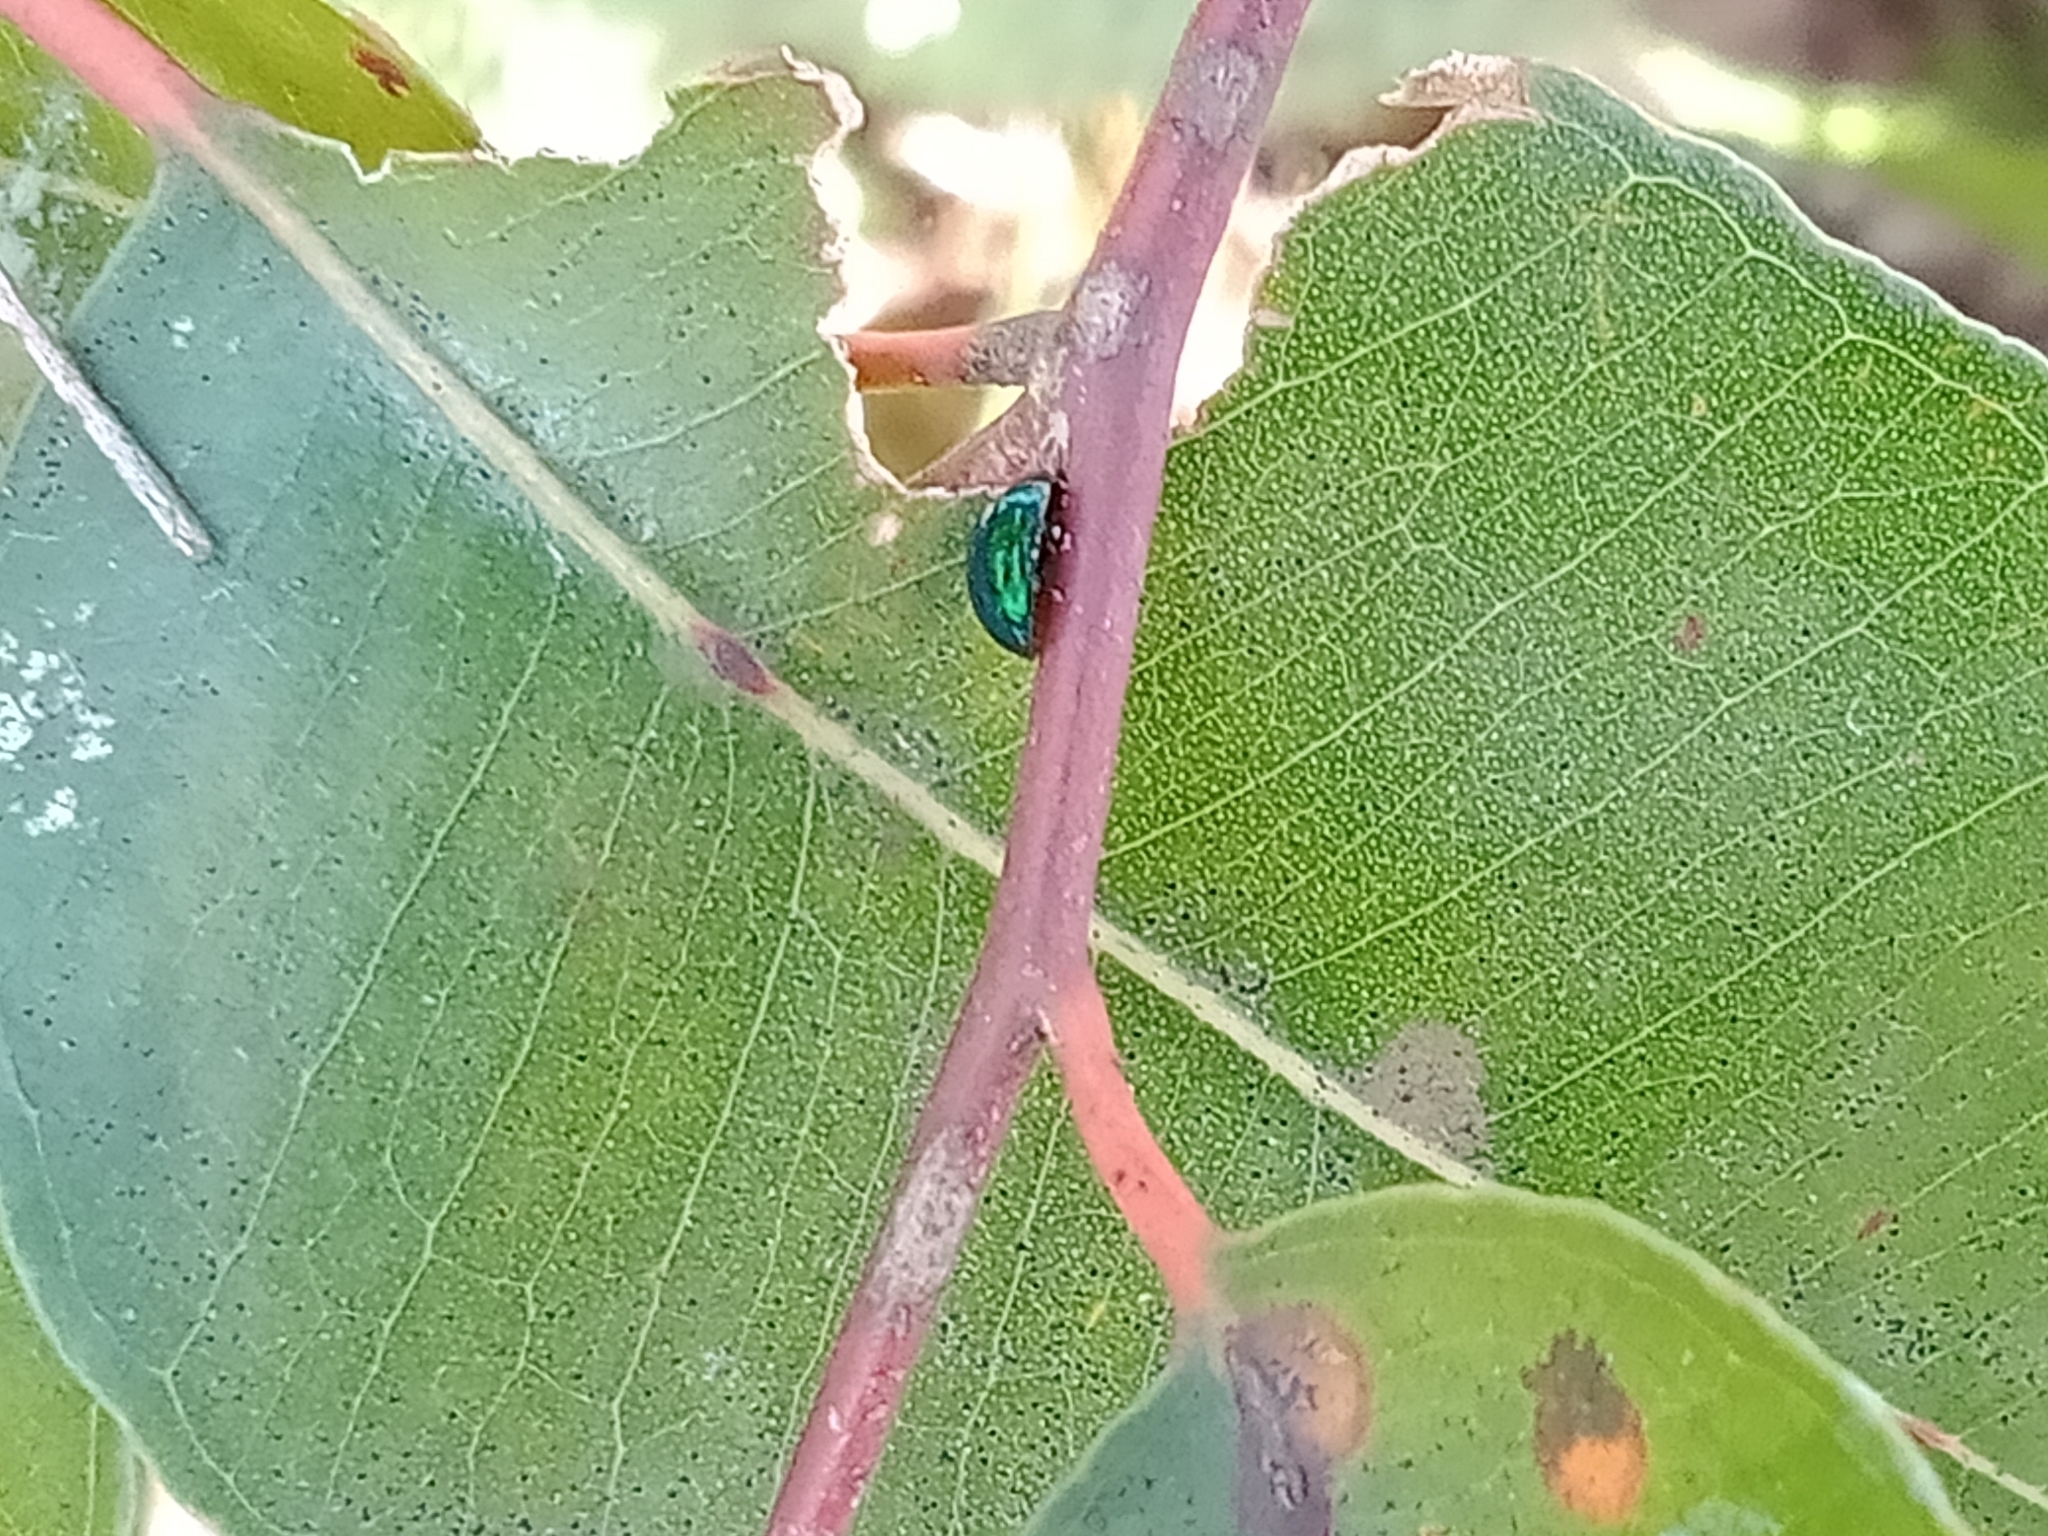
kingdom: Animalia
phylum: Arthropoda
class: Insecta
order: Coleoptera
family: Coccinellidae
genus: Halmus
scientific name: Halmus chalybeus
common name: Steel blue ladybird beetle
